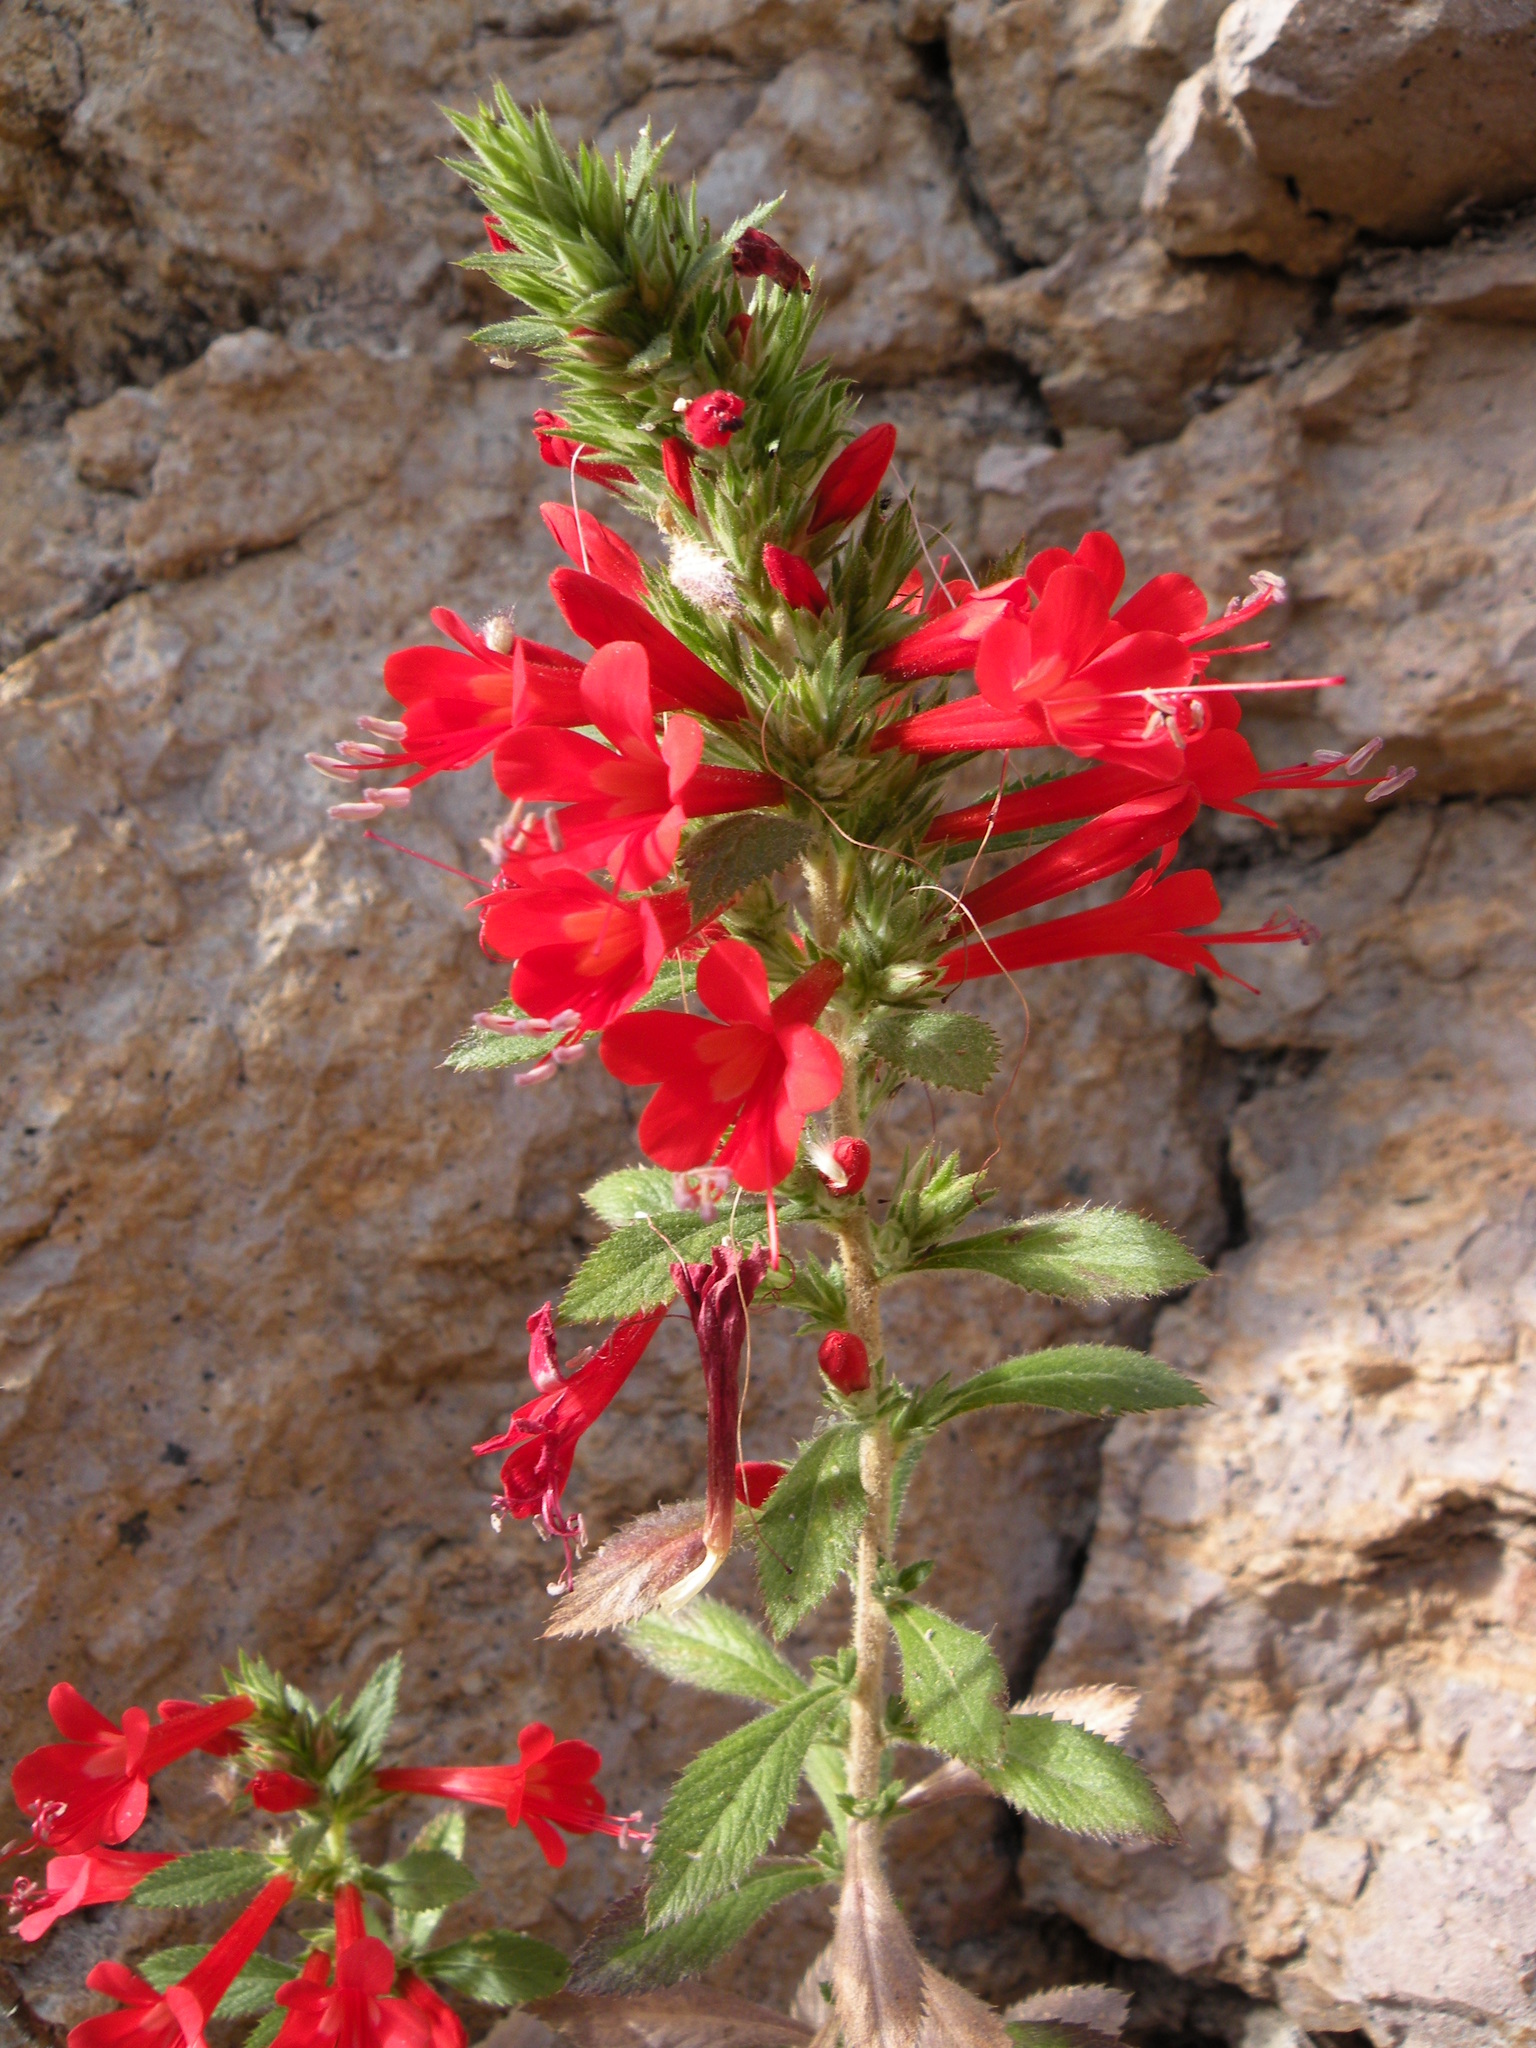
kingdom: Plantae
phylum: Tracheophyta
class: Magnoliopsida
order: Ericales
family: Polemoniaceae
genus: Loeselia
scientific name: Loeselia mexicana
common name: Mexican false calico
